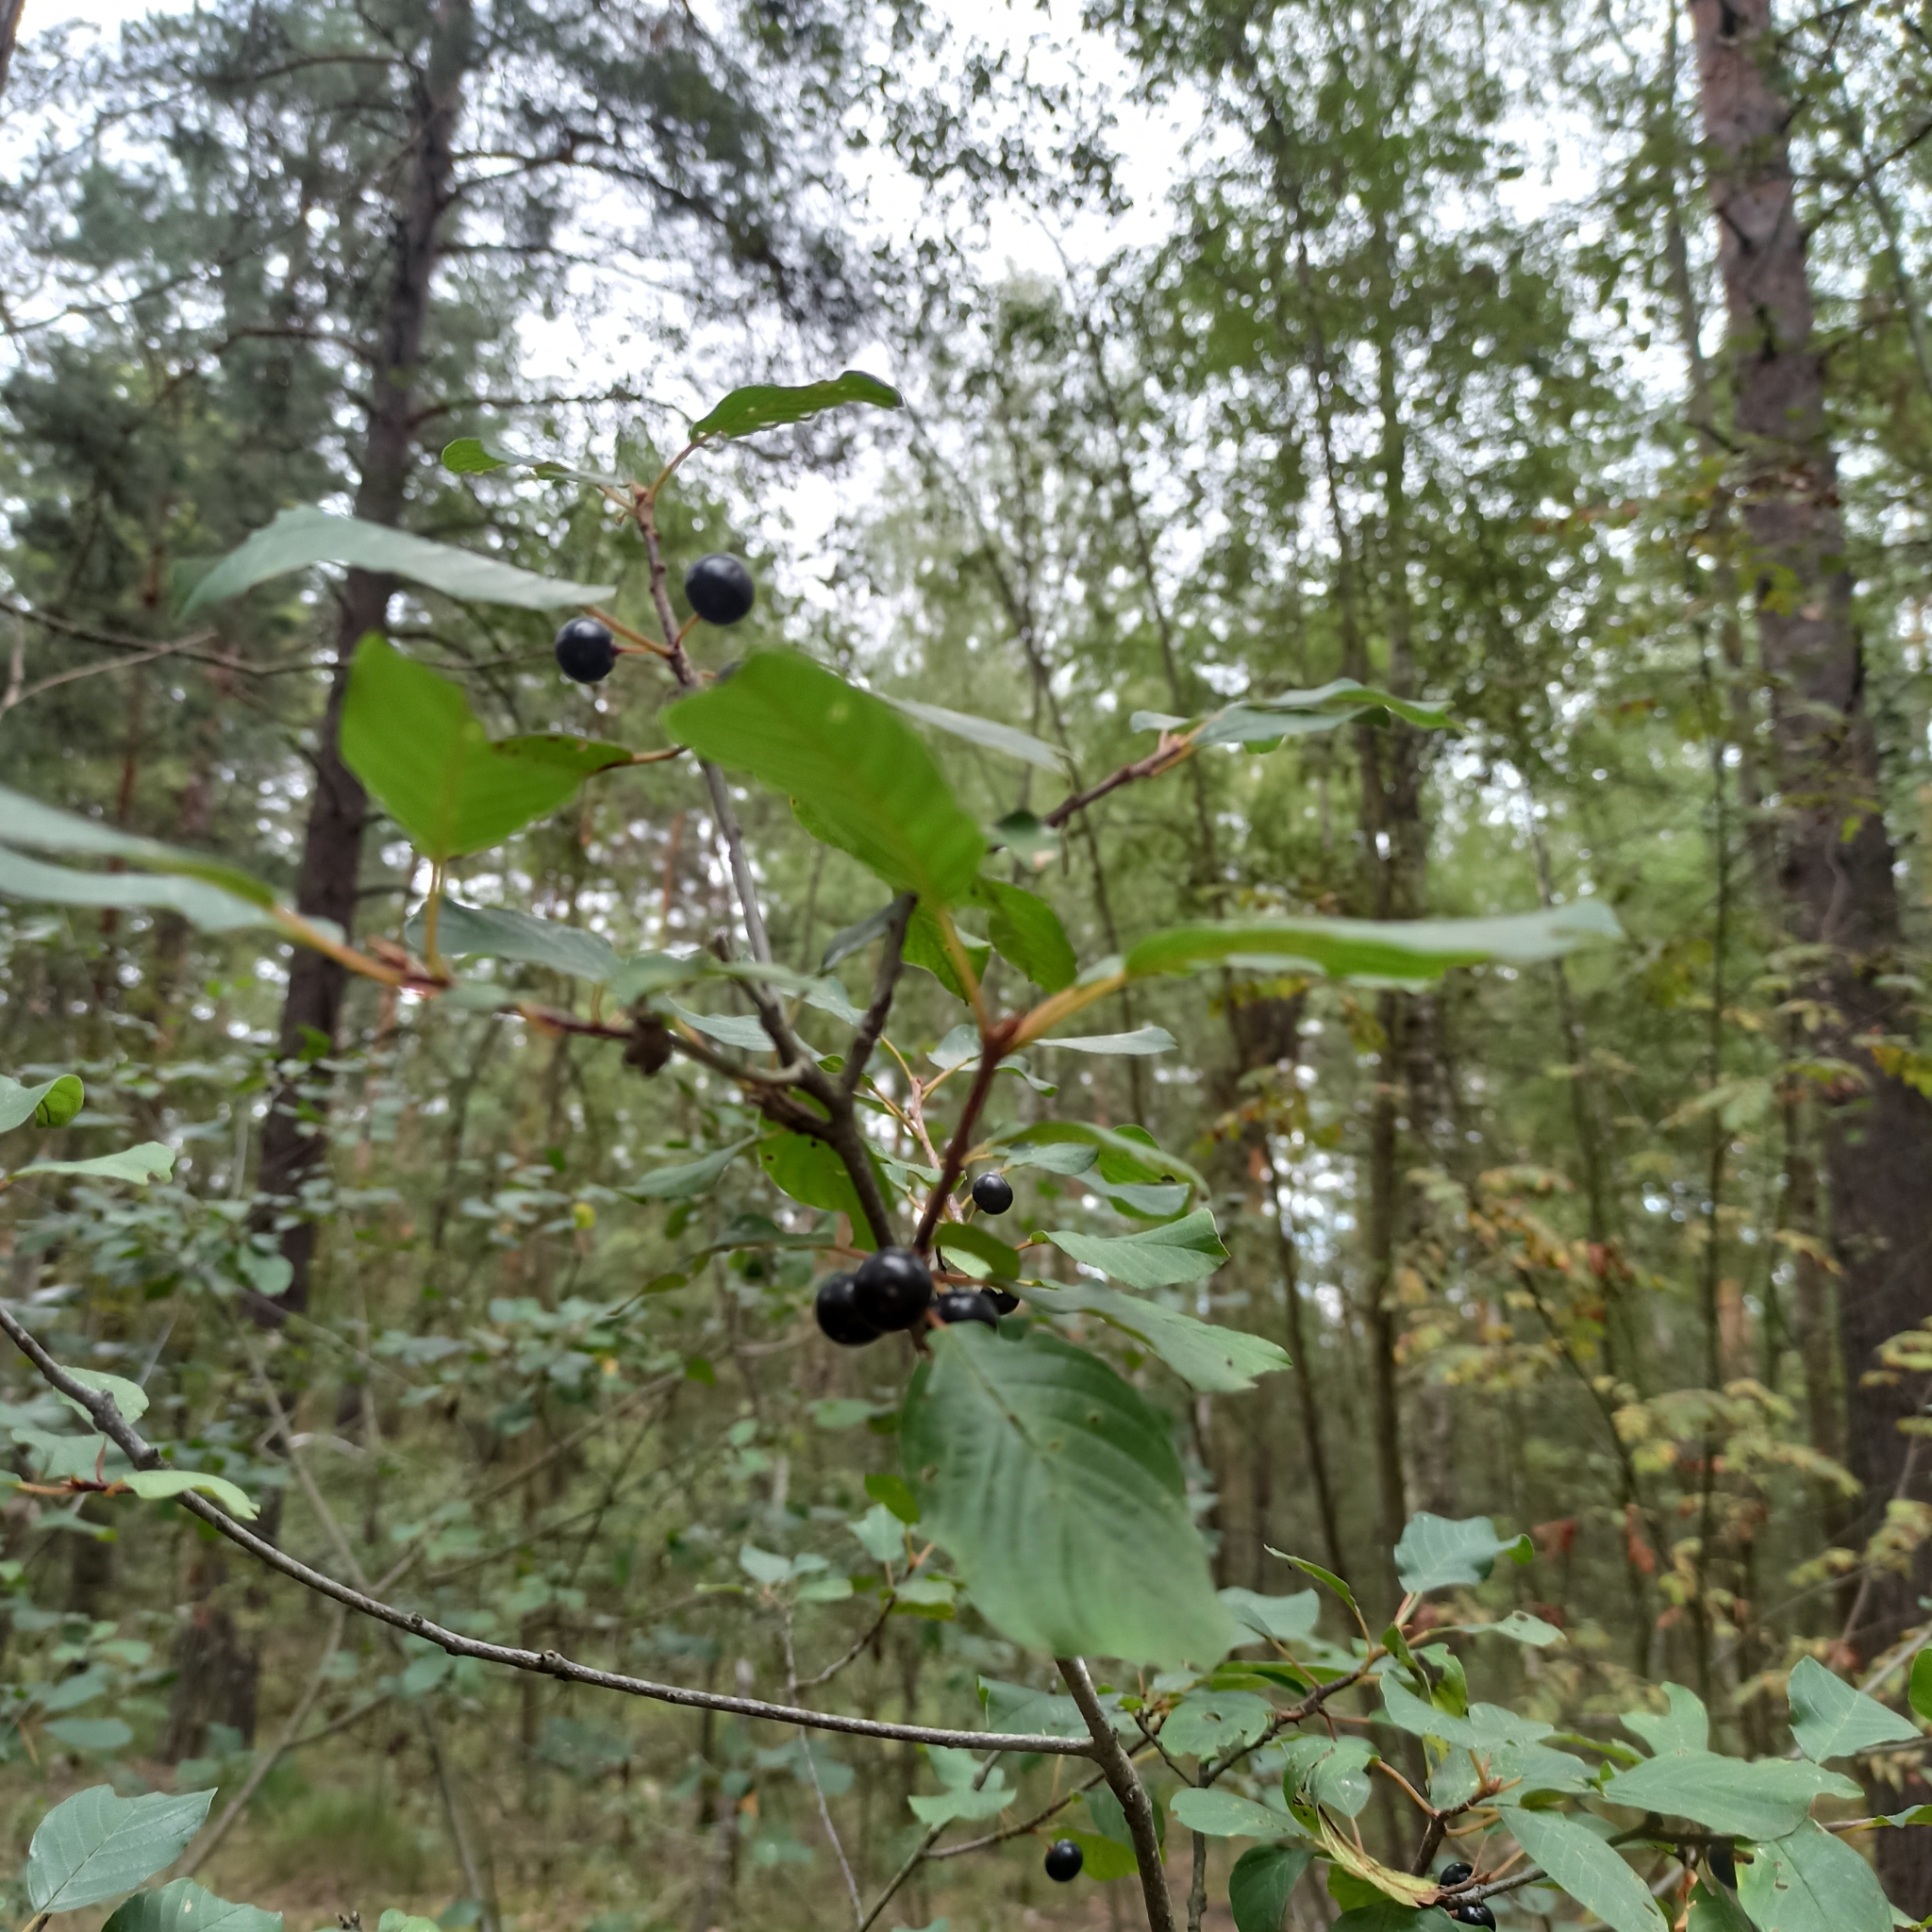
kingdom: Plantae
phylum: Tracheophyta
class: Magnoliopsida
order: Rosales
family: Rhamnaceae
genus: Frangula
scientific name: Frangula alnus
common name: Alder buckthorn
